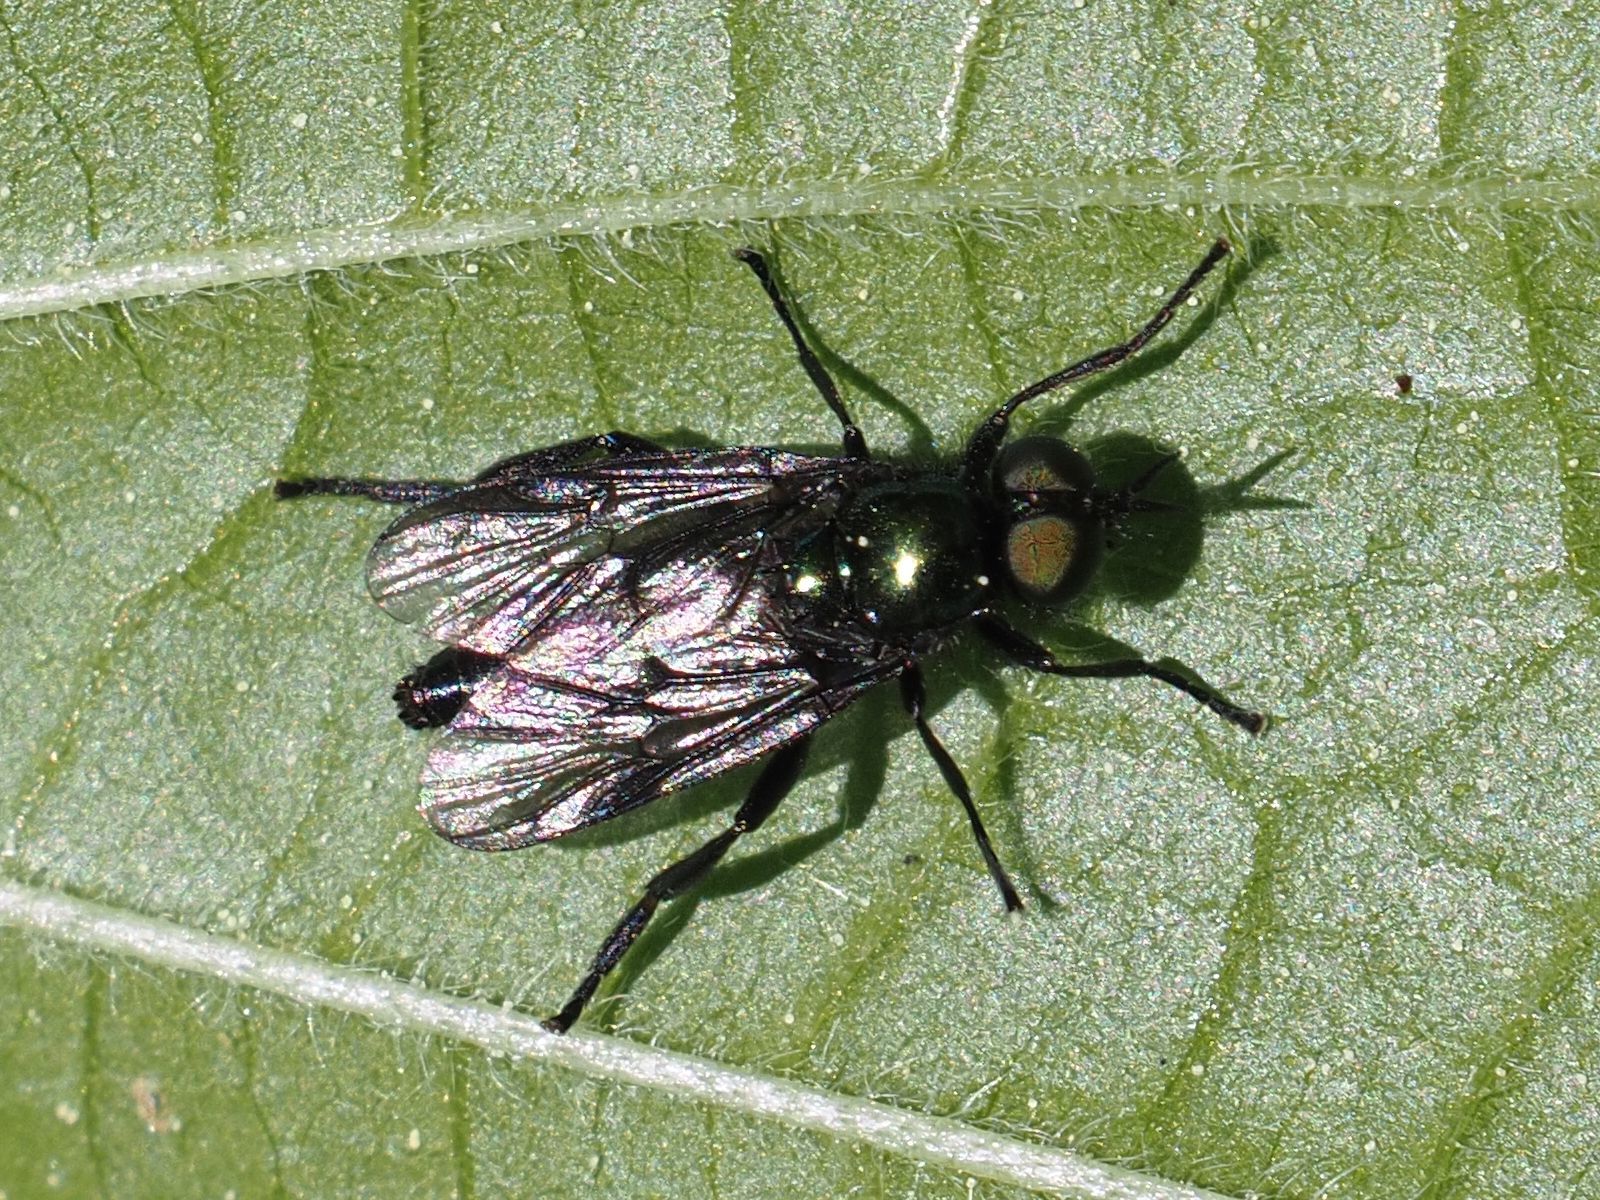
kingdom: Animalia
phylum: Arthropoda
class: Insecta
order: Diptera
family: Stratiomyidae
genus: Actina
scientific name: Actina chalybea
